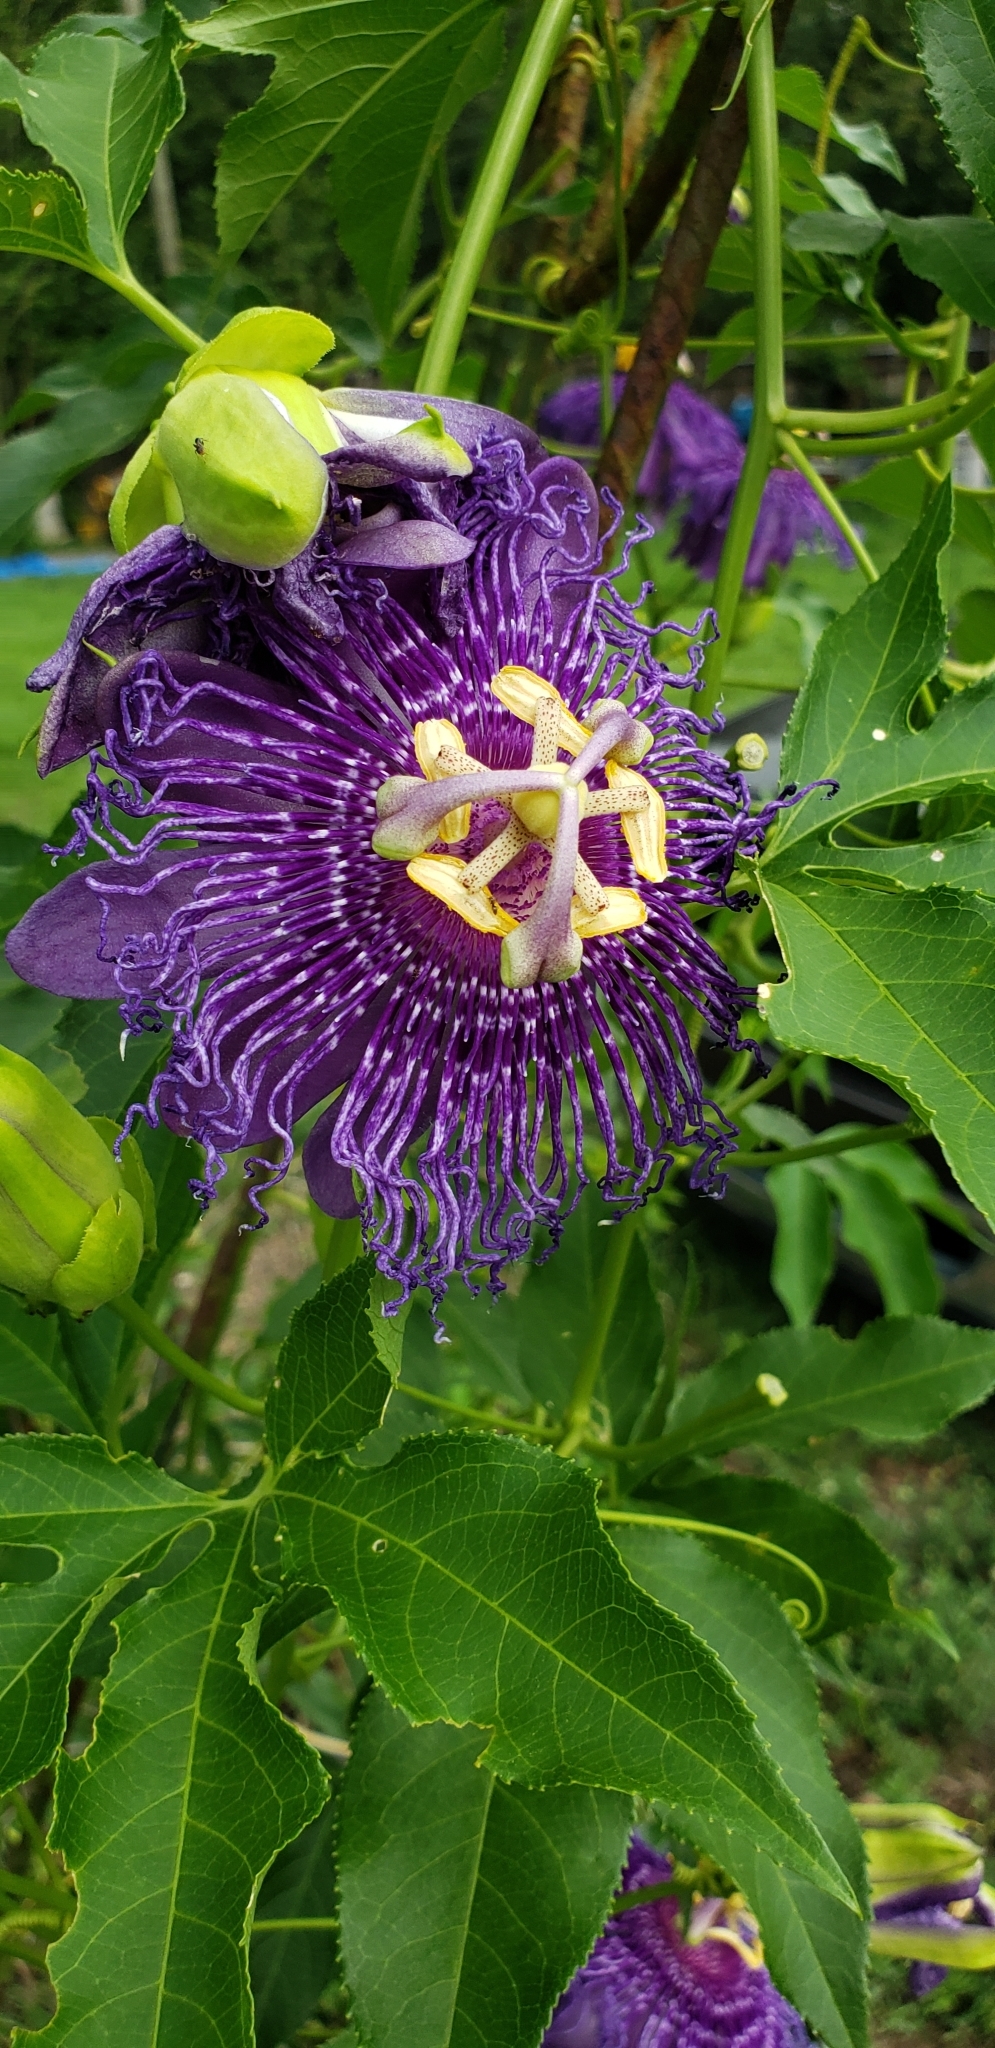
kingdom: Plantae
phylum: Tracheophyta
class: Magnoliopsida
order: Malpighiales
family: Passifloraceae
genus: Passiflora
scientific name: Passiflora
